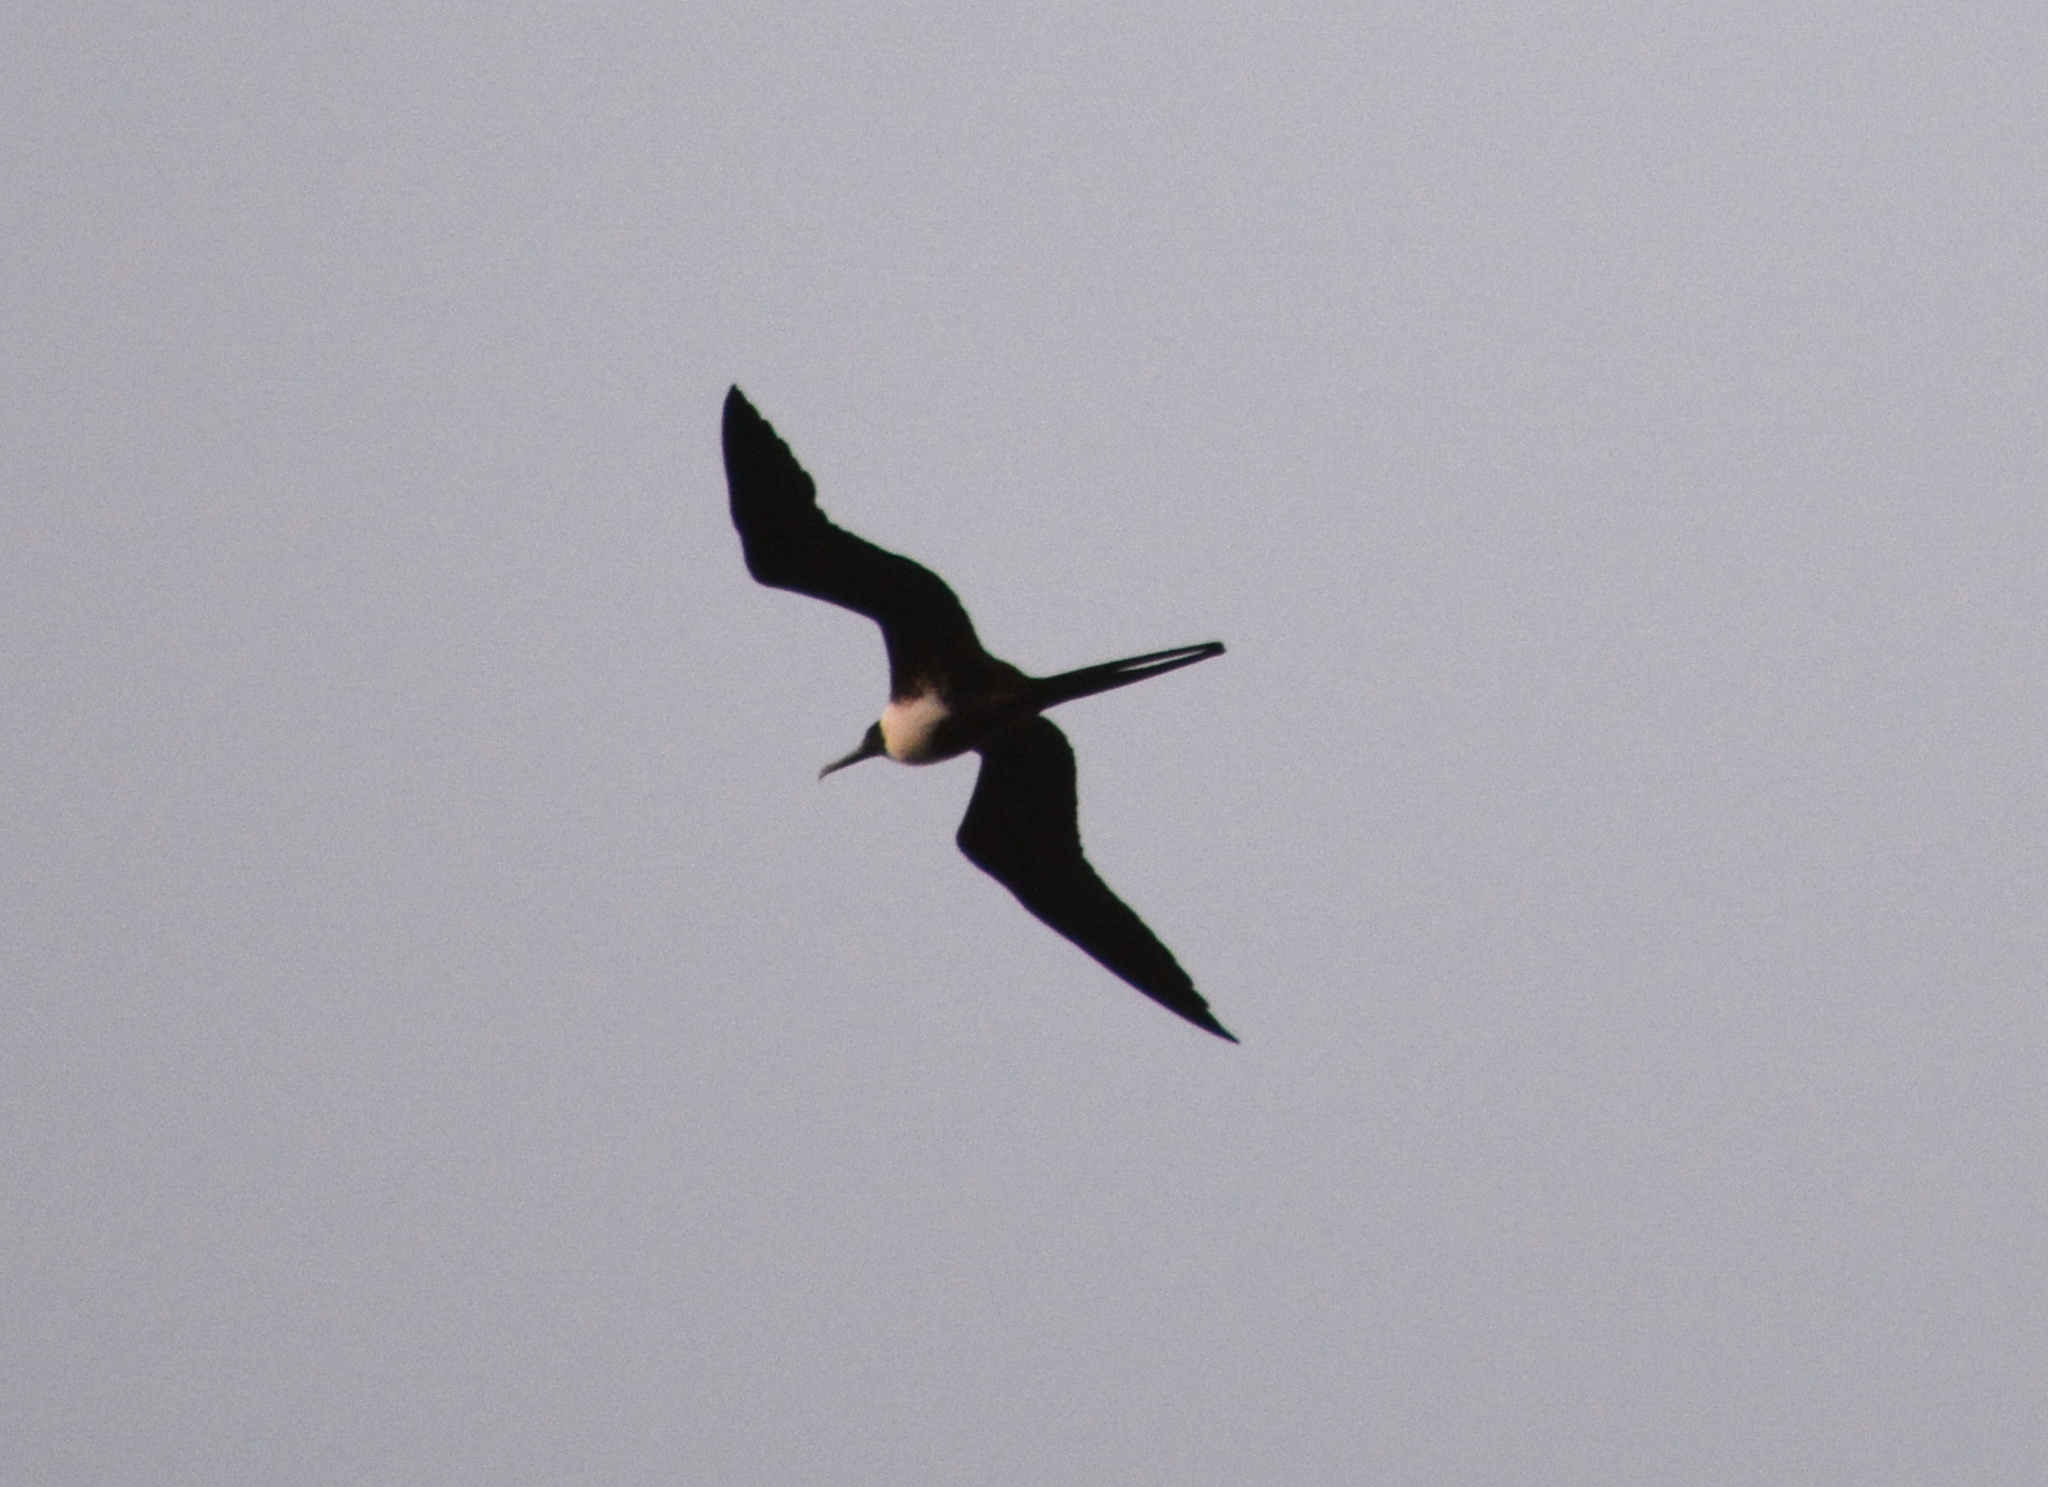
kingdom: Animalia
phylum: Chordata
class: Aves
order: Suliformes
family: Fregatidae
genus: Fregata
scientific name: Fregata magnificens
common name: Magnificent frigatebird
